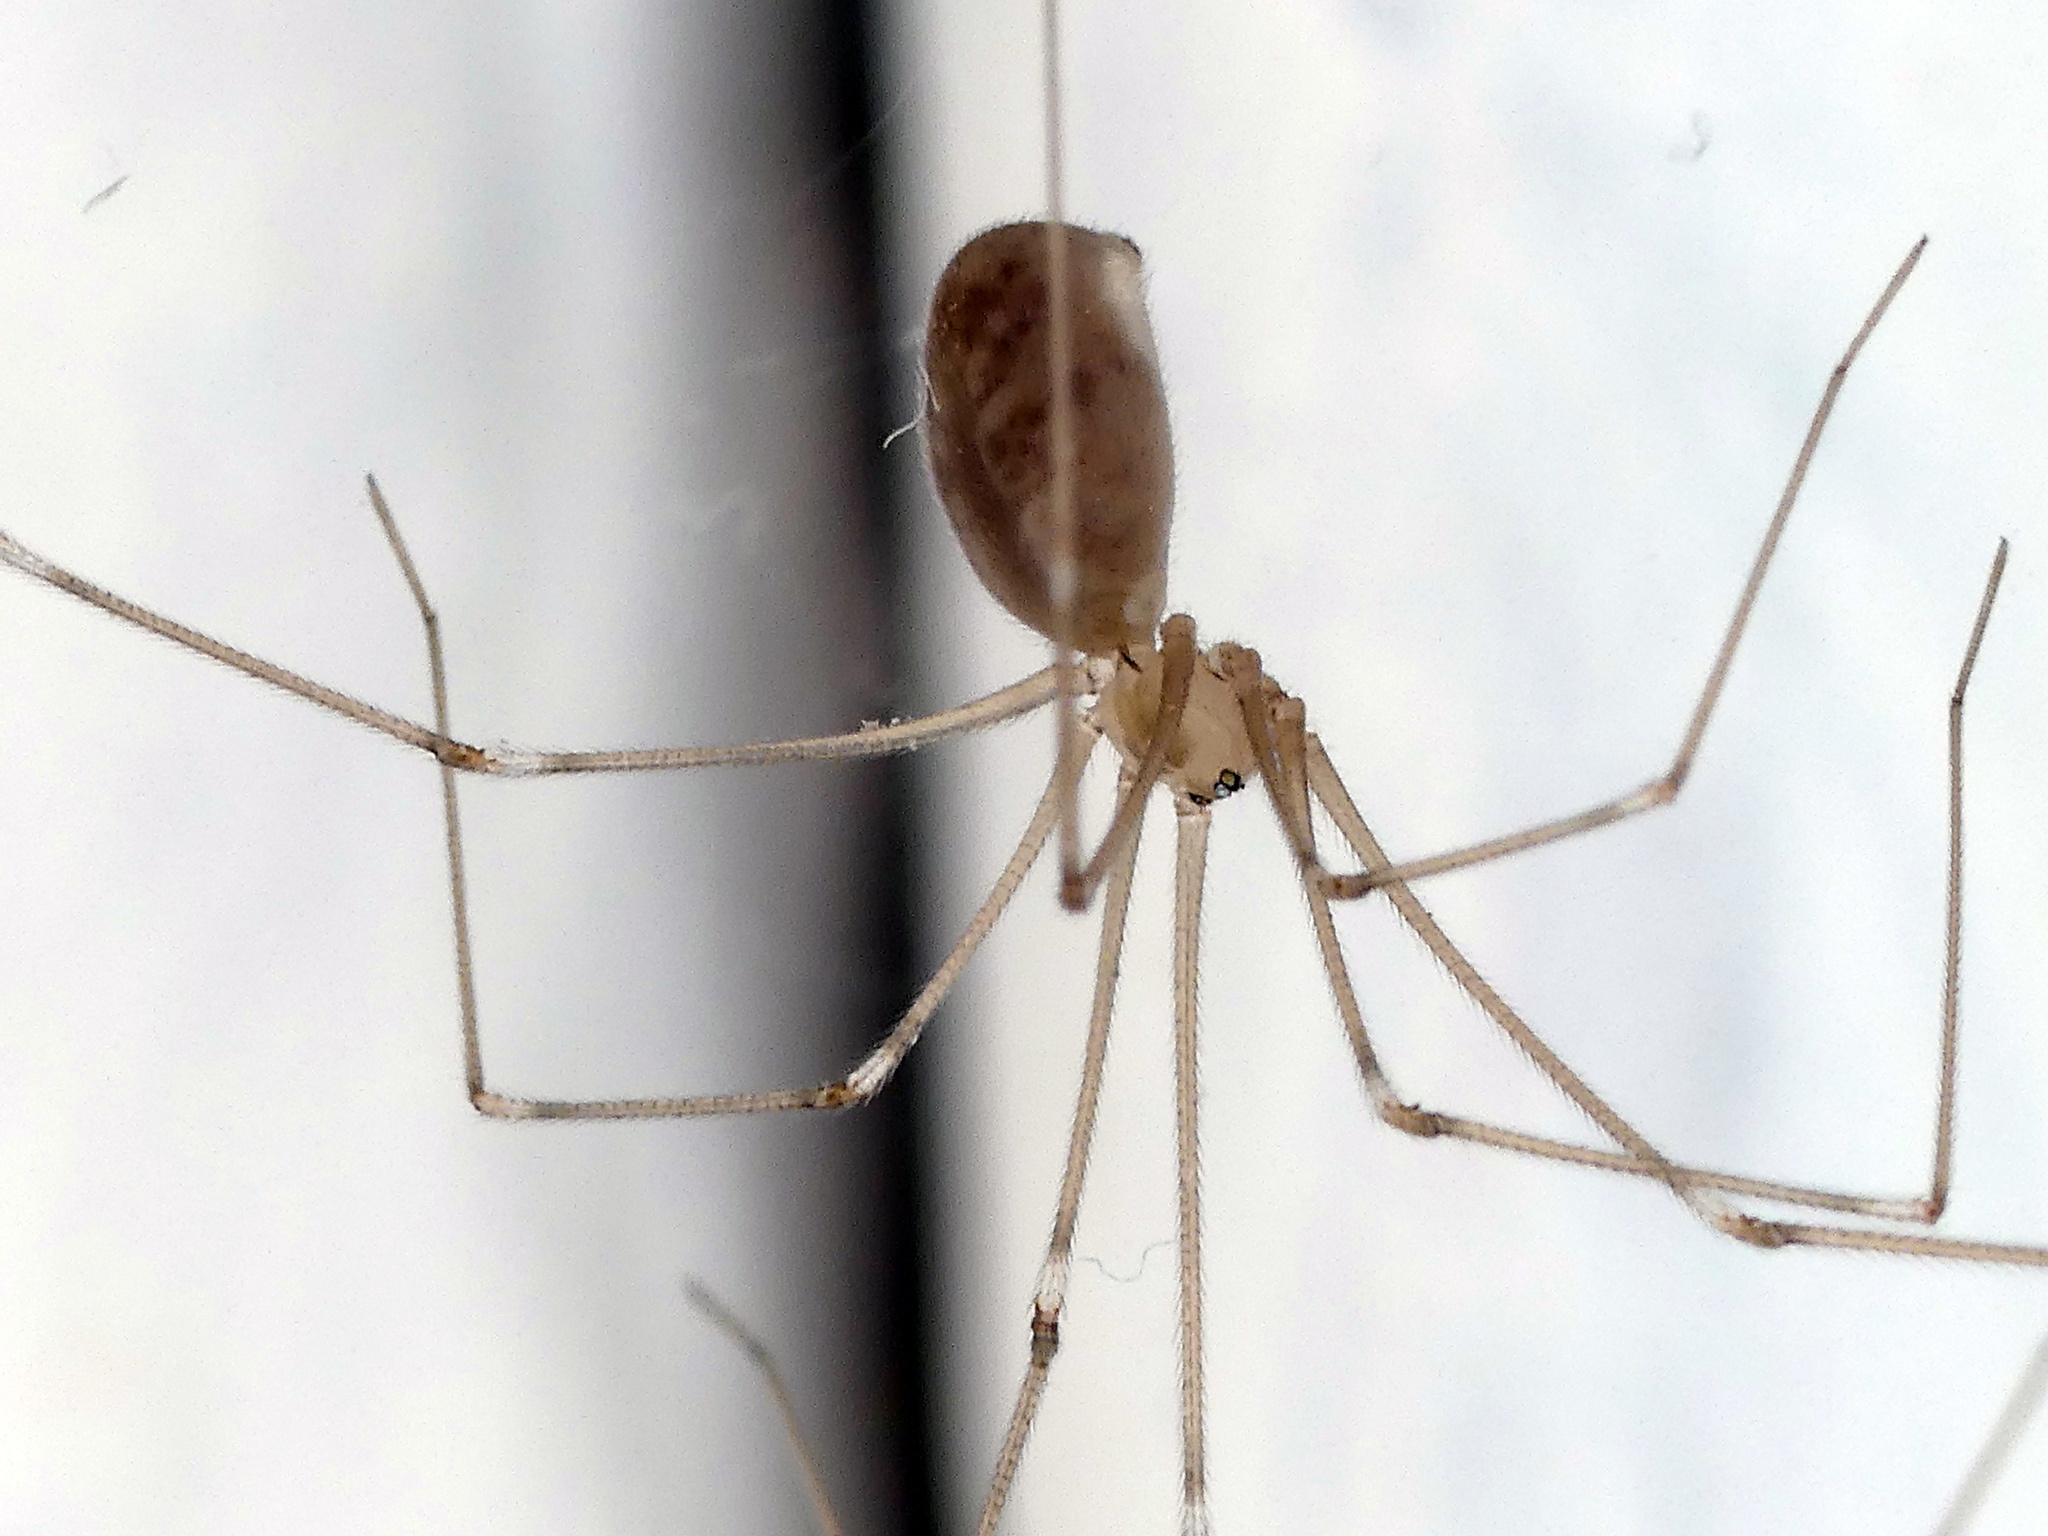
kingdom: Animalia
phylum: Arthropoda
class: Arachnida
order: Araneae
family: Pholcidae
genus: Pholcus
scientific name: Pholcus phalangioides
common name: Longbodied cellar spider
